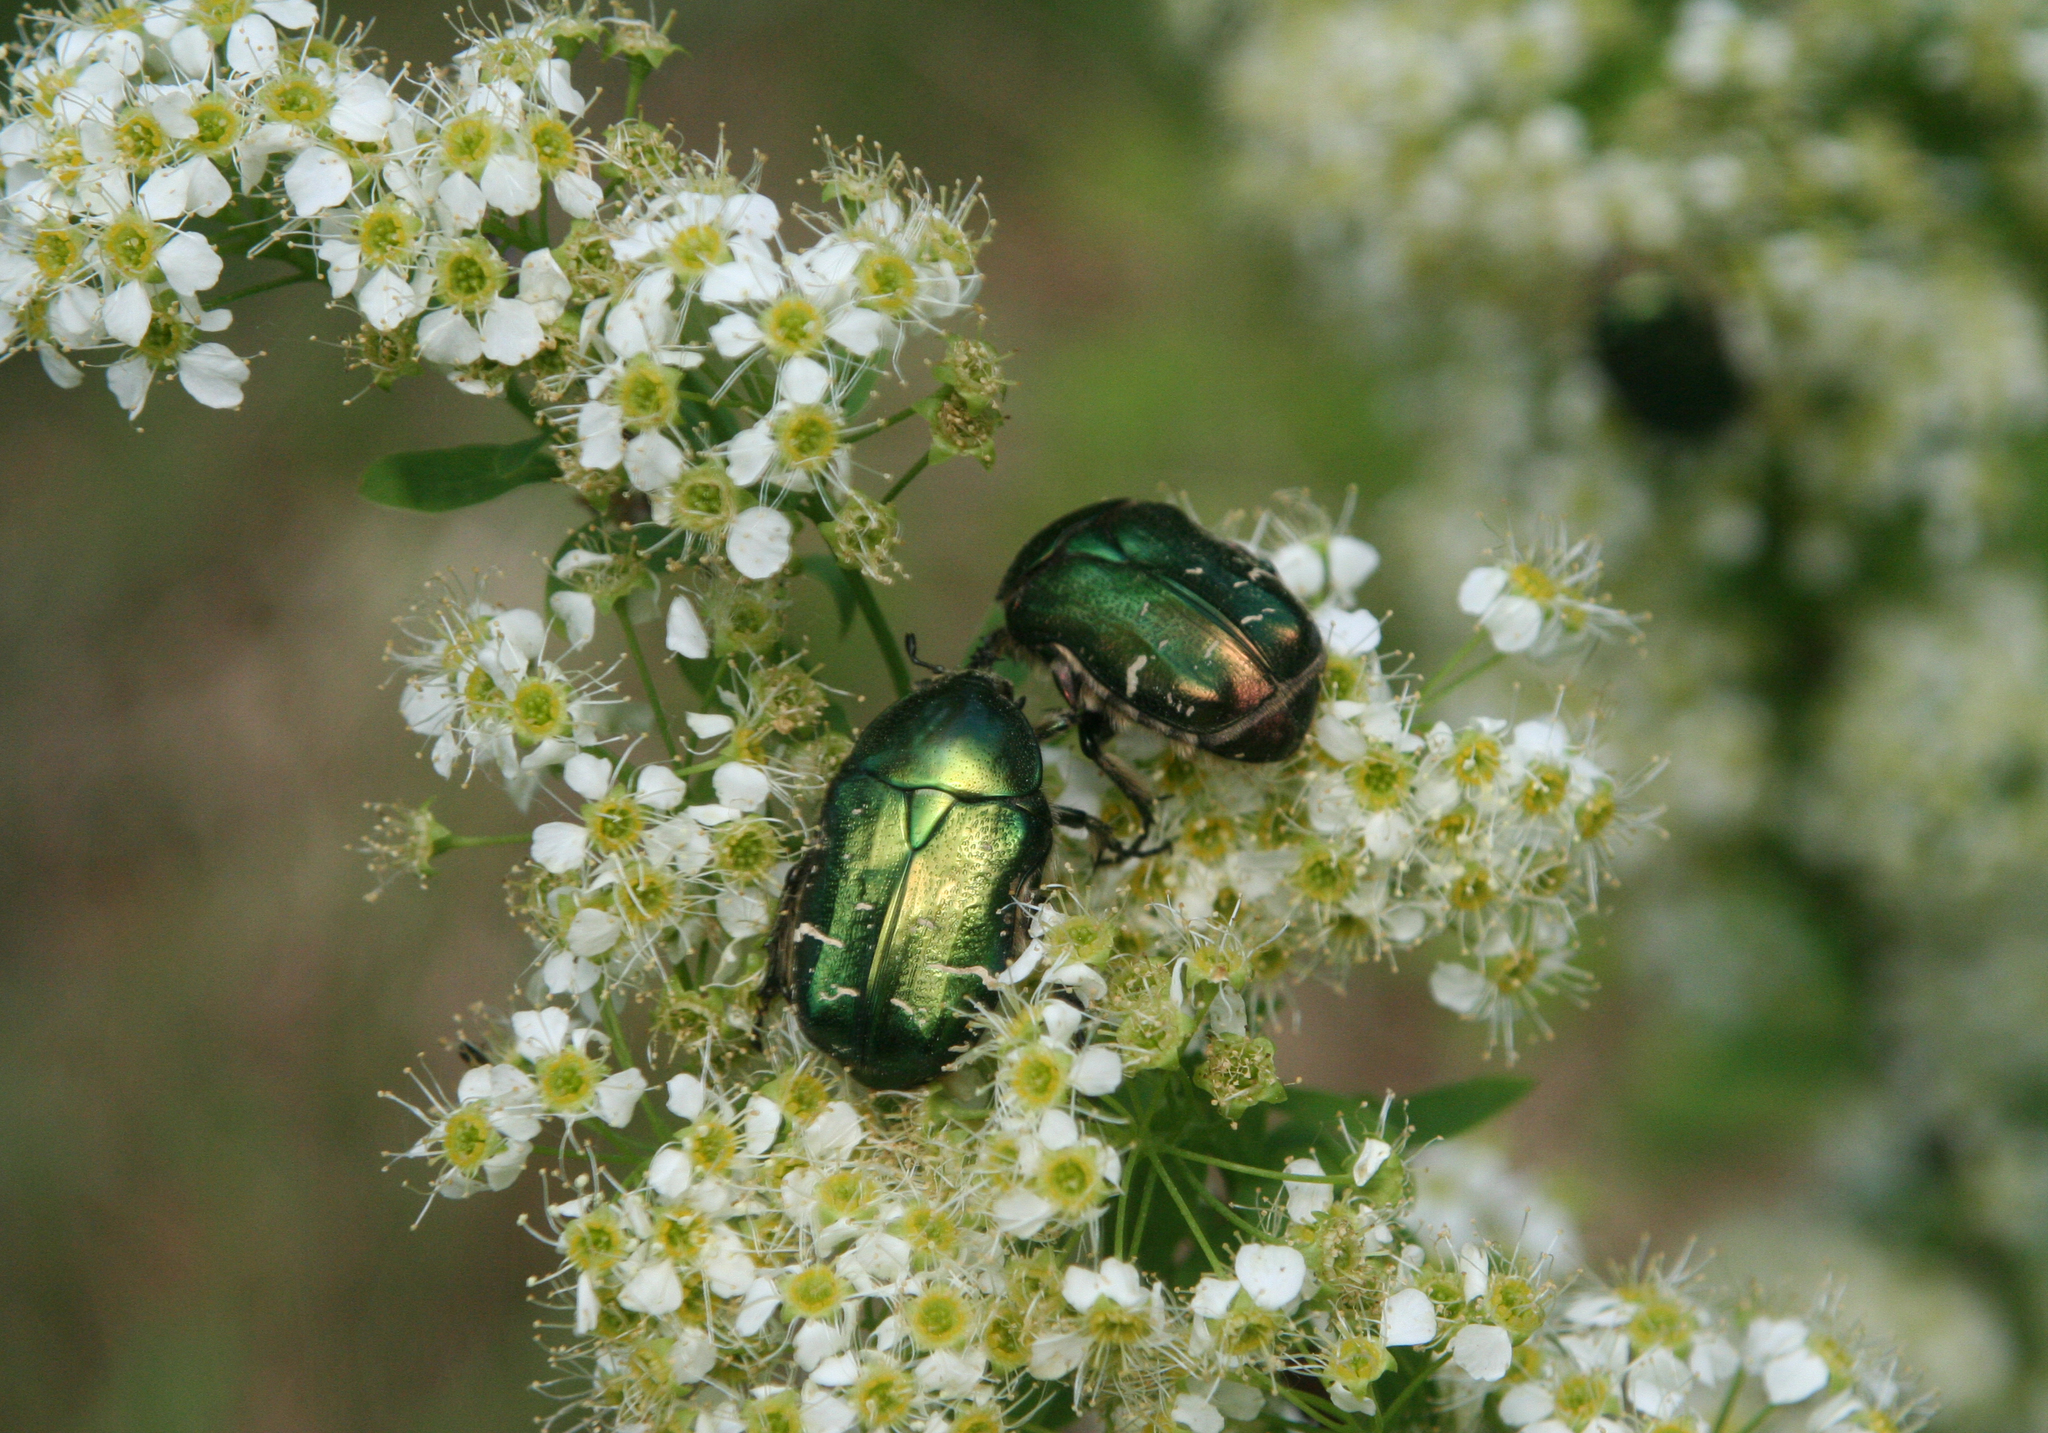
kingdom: Animalia
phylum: Arthropoda
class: Insecta
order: Coleoptera
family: Scarabaeidae
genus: Cetonia
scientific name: Cetonia aurata
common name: Rose chafer
